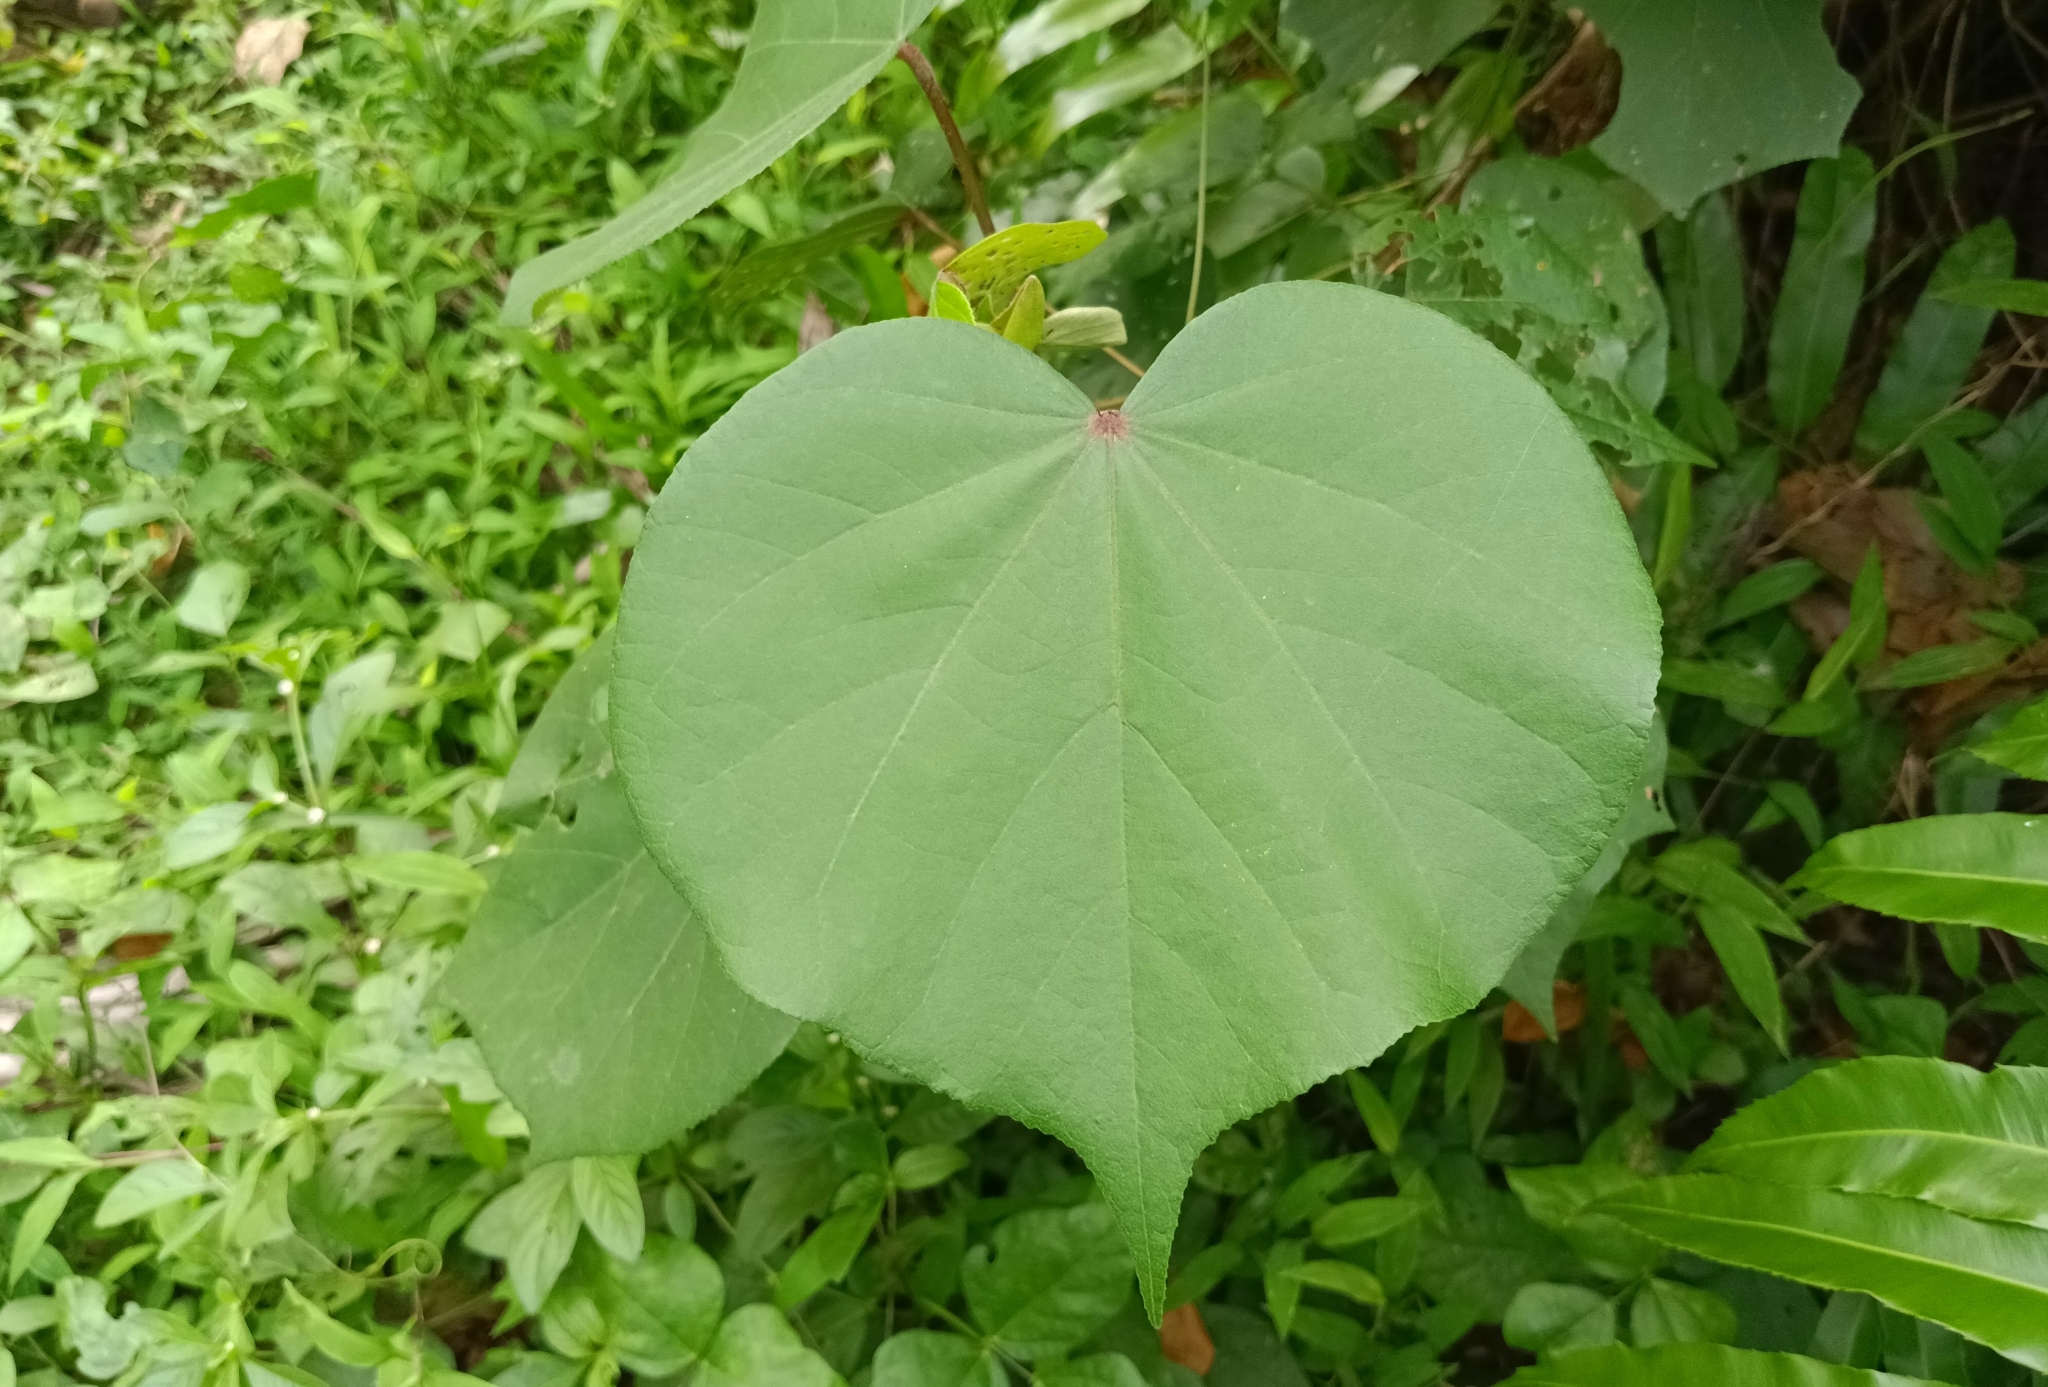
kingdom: Plantae
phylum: Tracheophyta
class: Magnoliopsida
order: Malvales
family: Malvaceae
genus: Talipariti
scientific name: Talipariti tiliaceum
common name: Sea hibiscus
